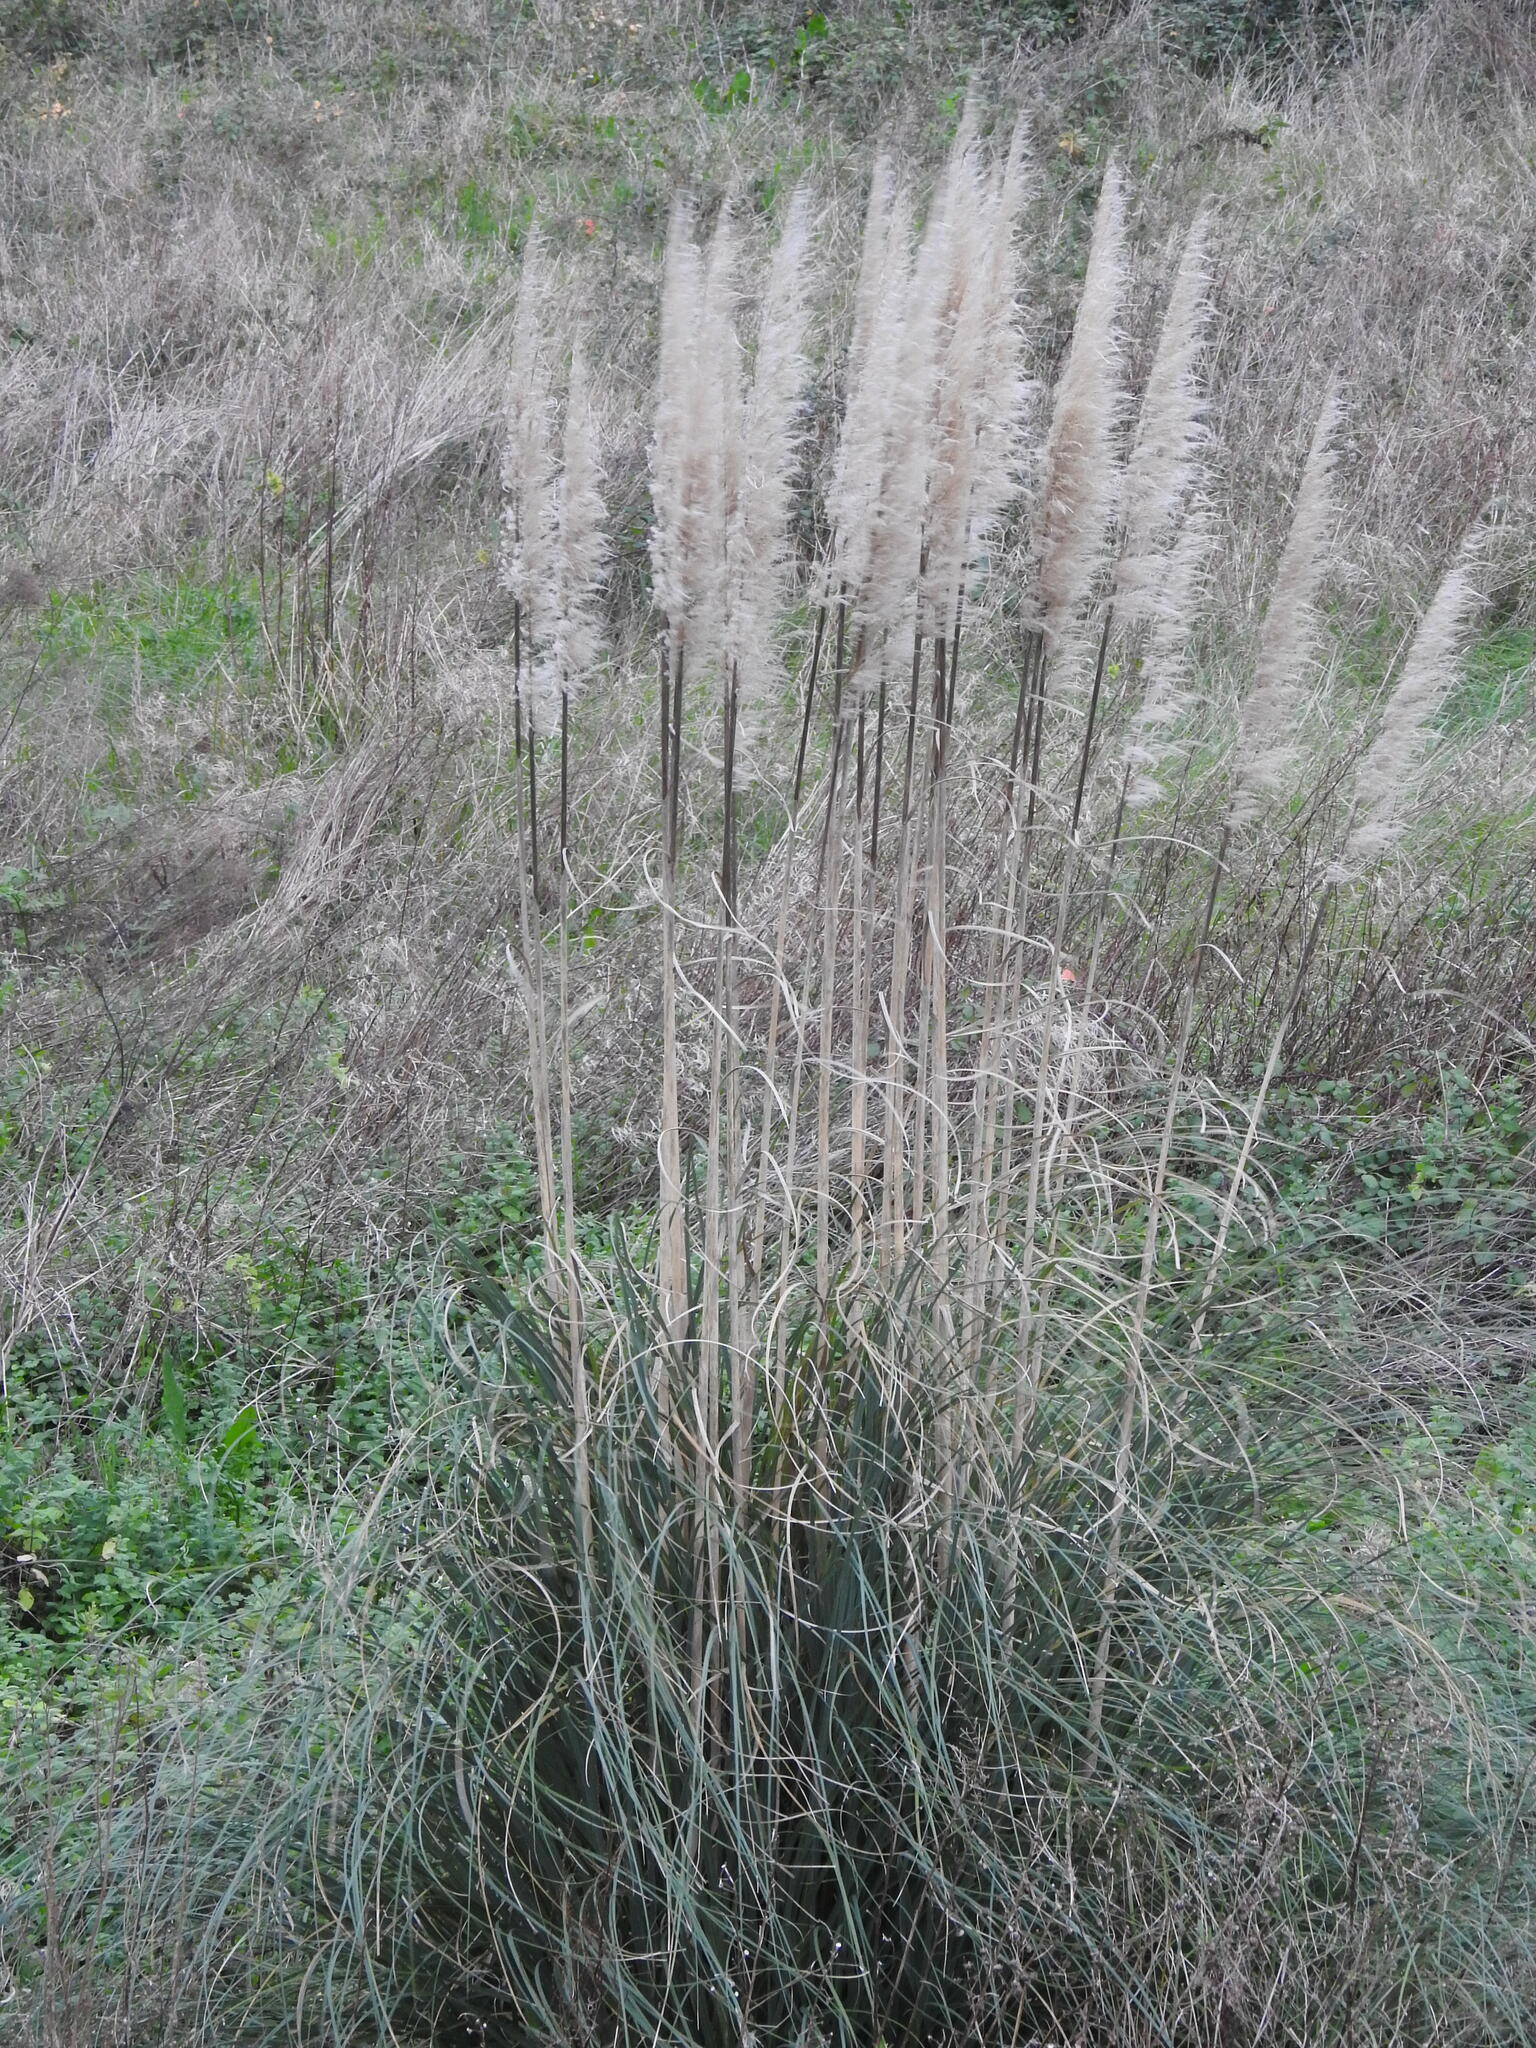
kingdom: Plantae
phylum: Tracheophyta
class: Liliopsida
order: Poales
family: Poaceae
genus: Cortaderia
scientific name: Cortaderia selloana
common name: Uruguayan pampas grass
